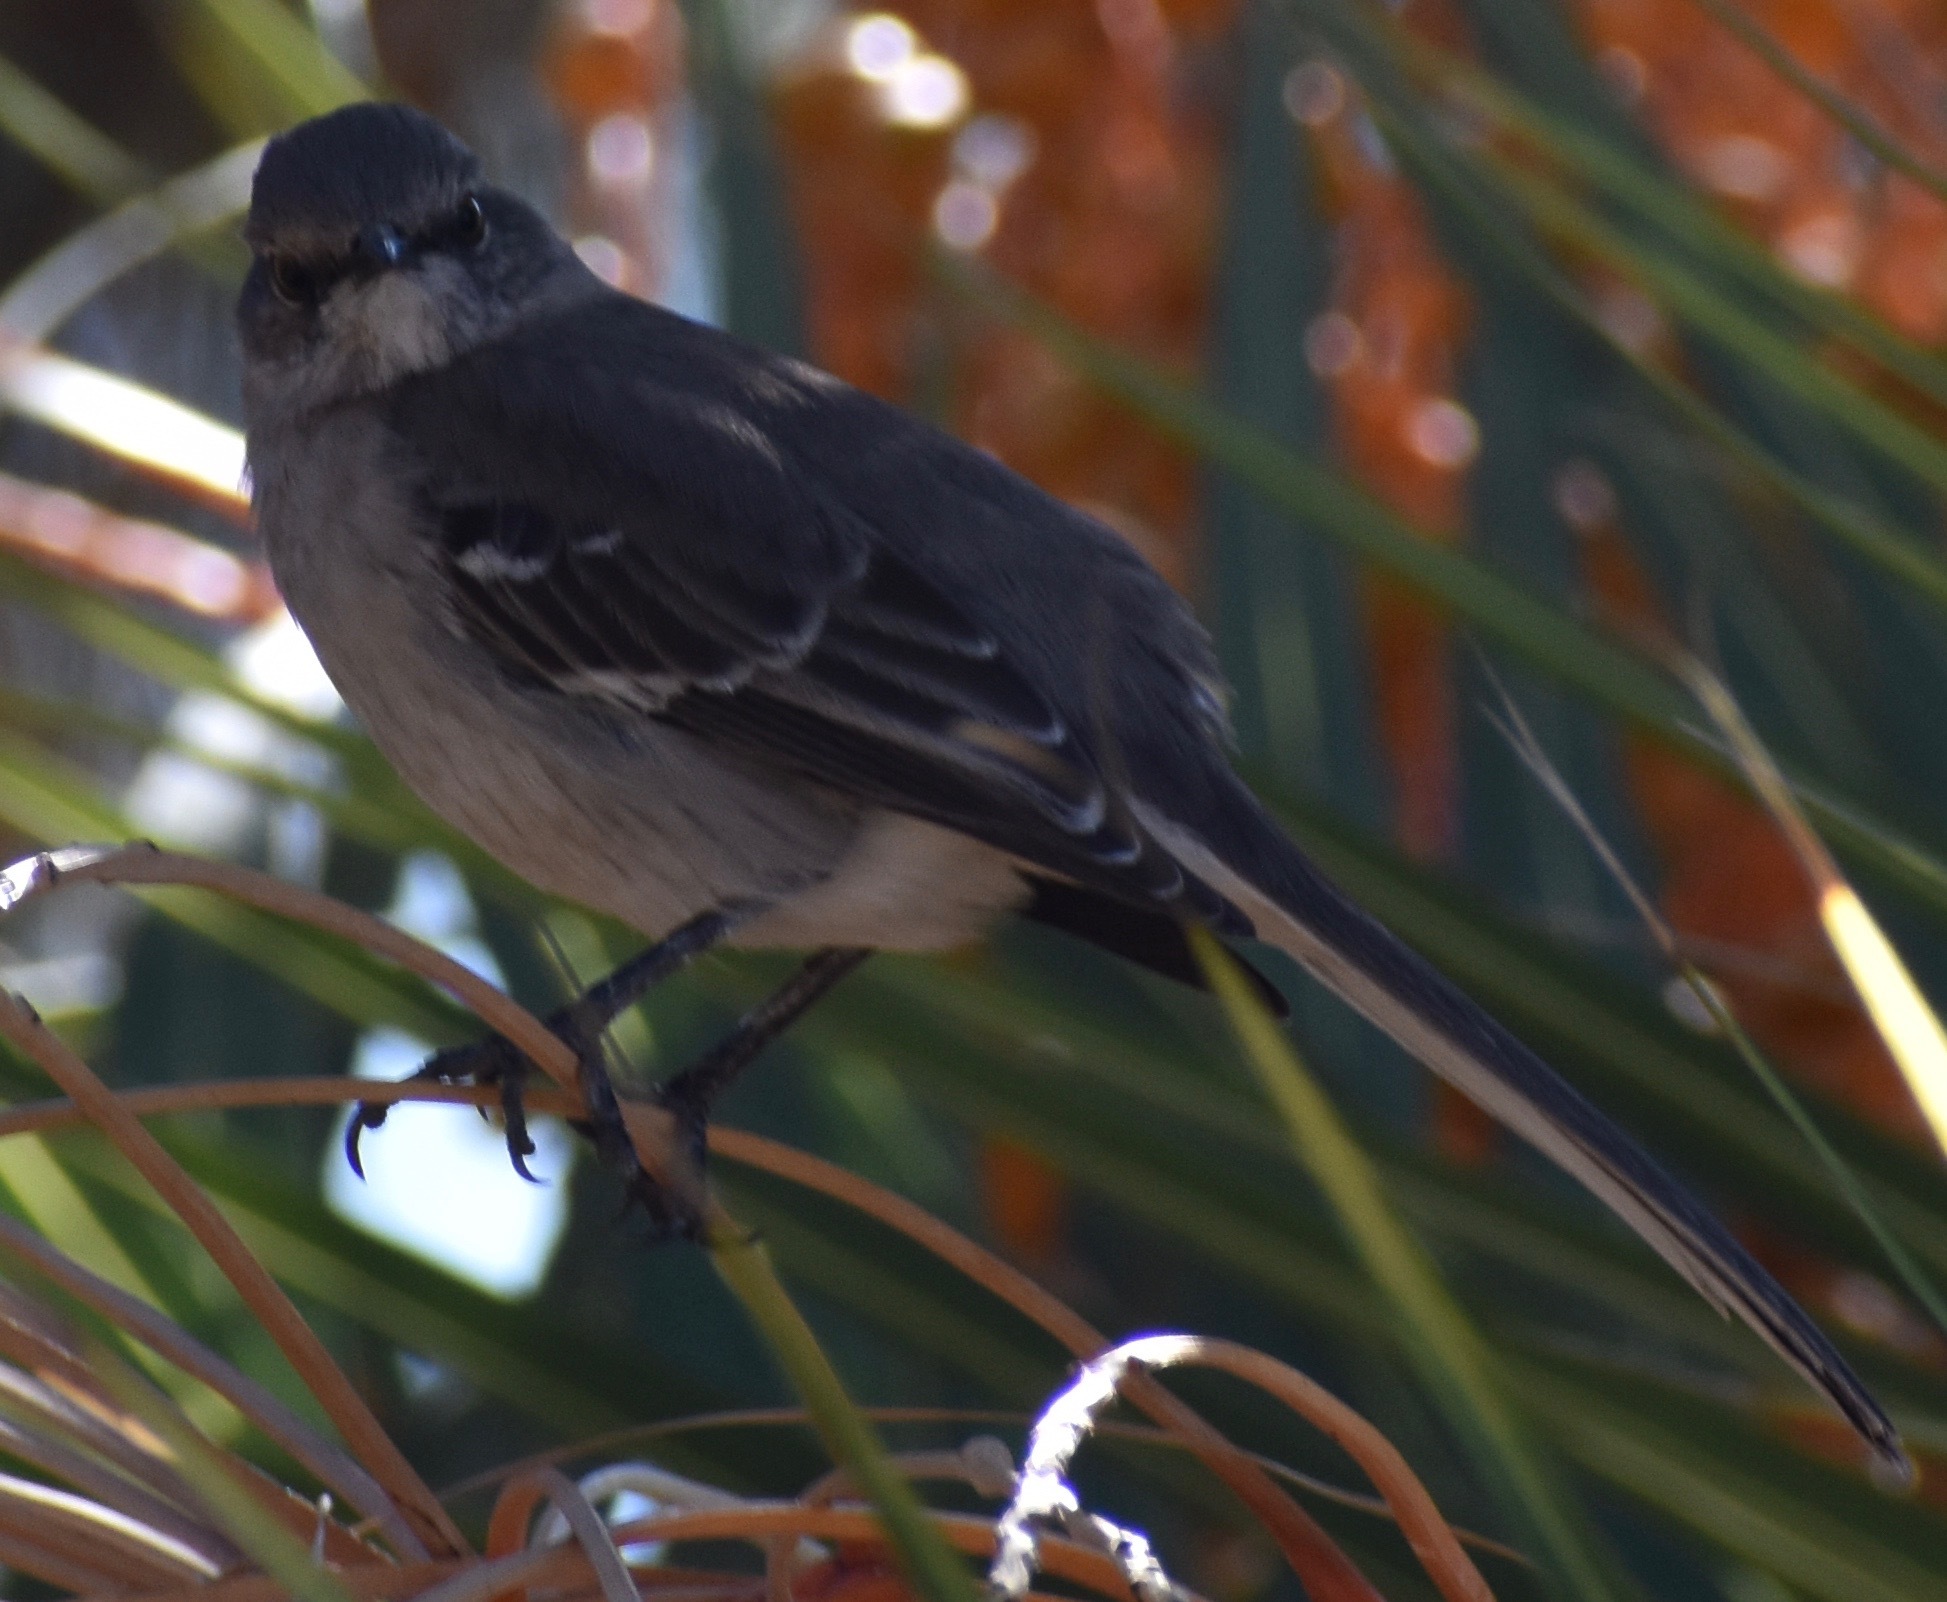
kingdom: Animalia
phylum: Chordata
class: Aves
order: Passeriformes
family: Mimidae
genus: Mimus
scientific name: Mimus polyglottos
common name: Northern mockingbird
